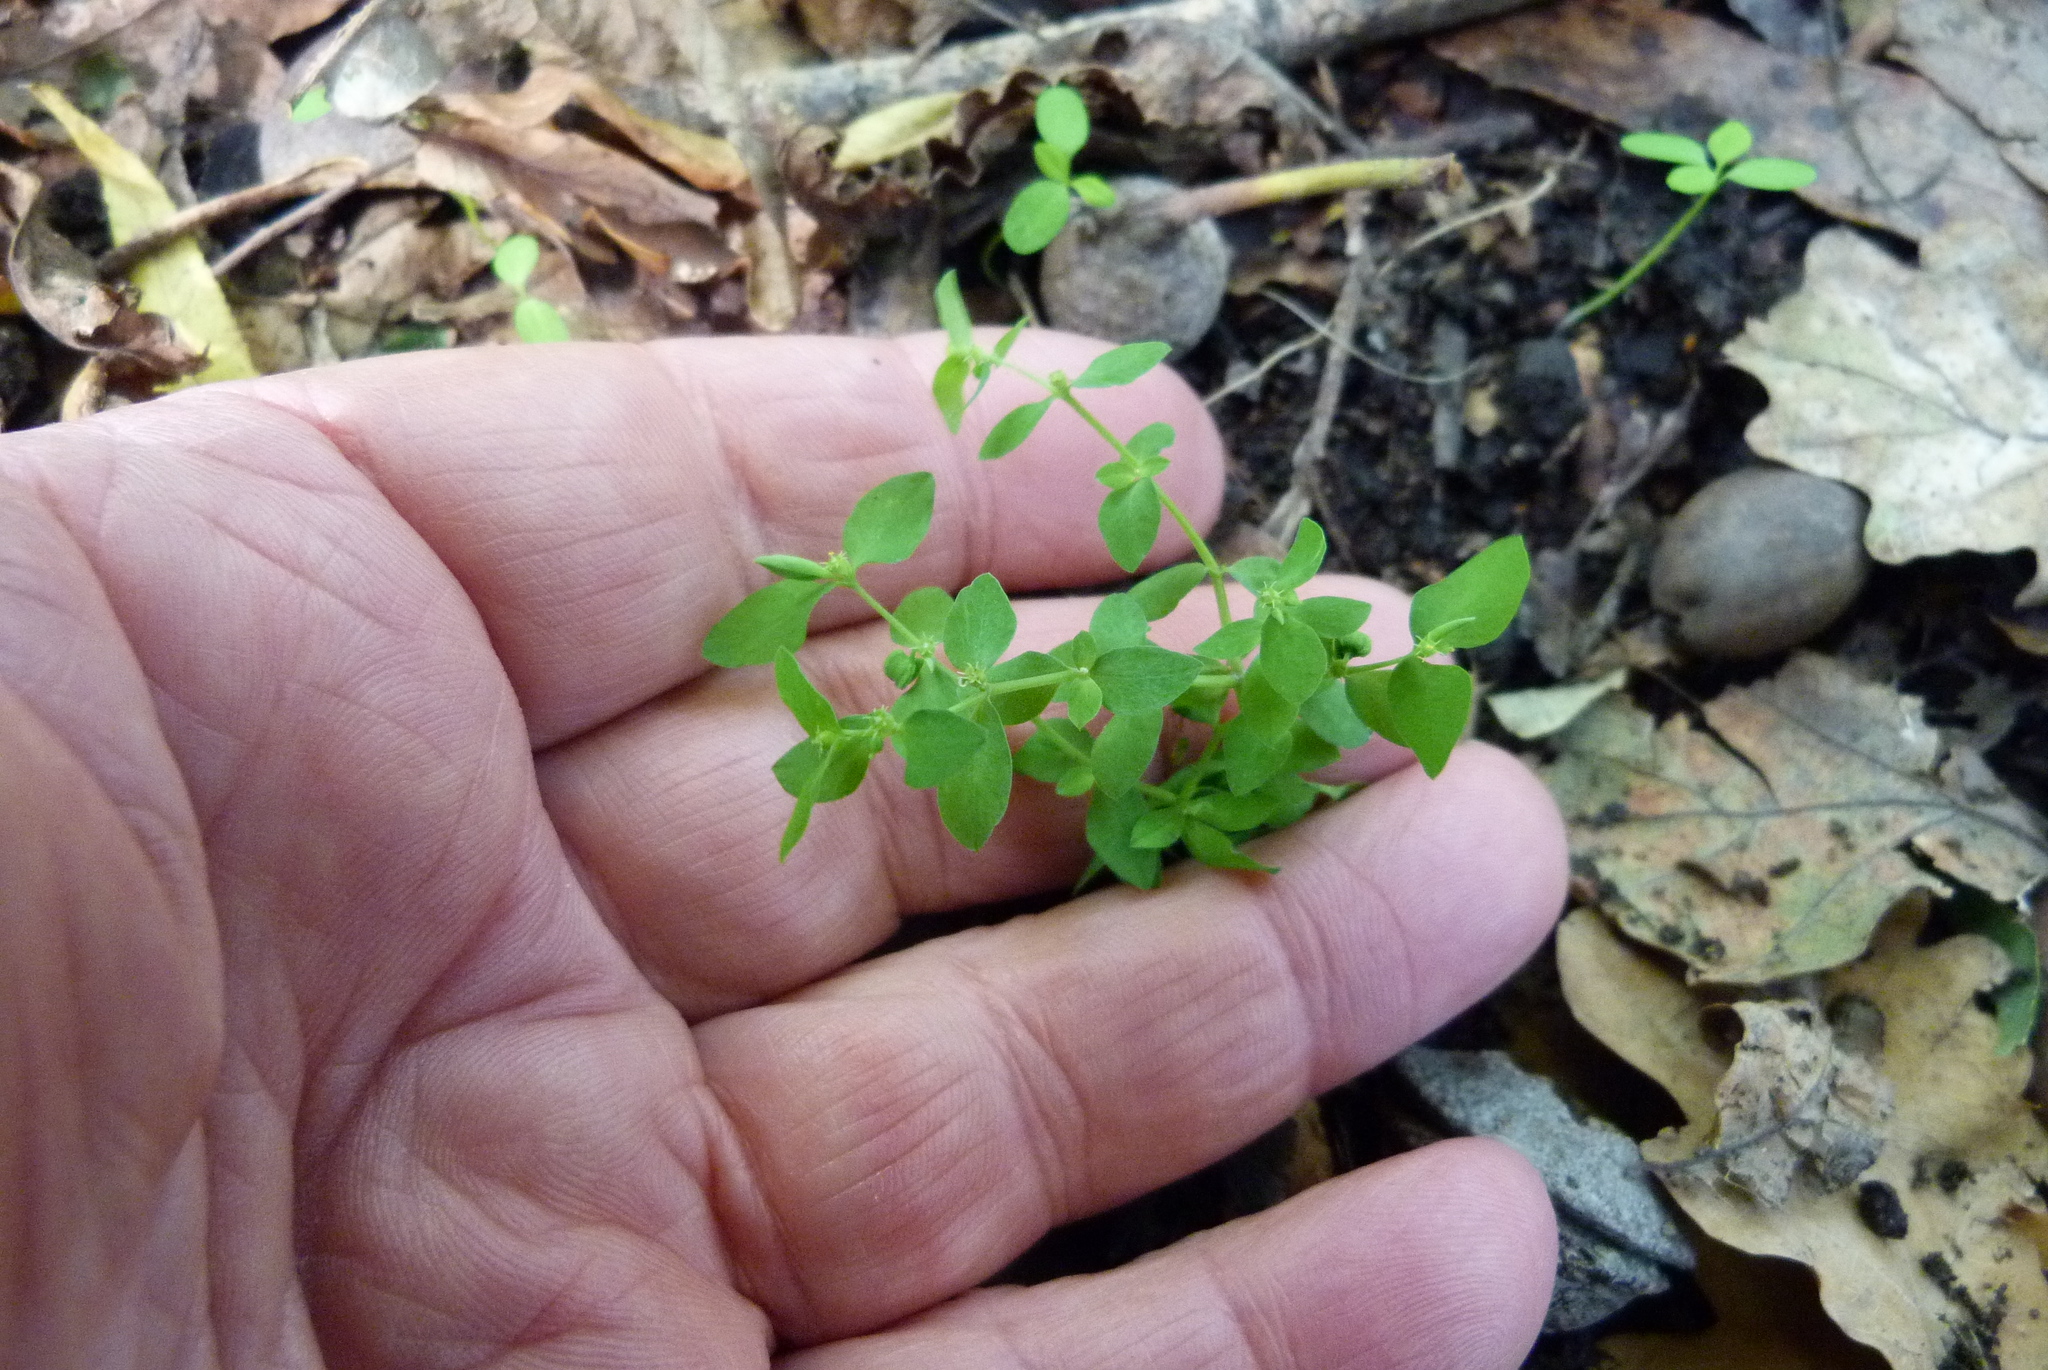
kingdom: Plantae
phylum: Tracheophyta
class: Magnoliopsida
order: Malpighiales
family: Euphorbiaceae
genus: Euphorbia
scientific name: Euphorbia peplus
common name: Petty spurge
